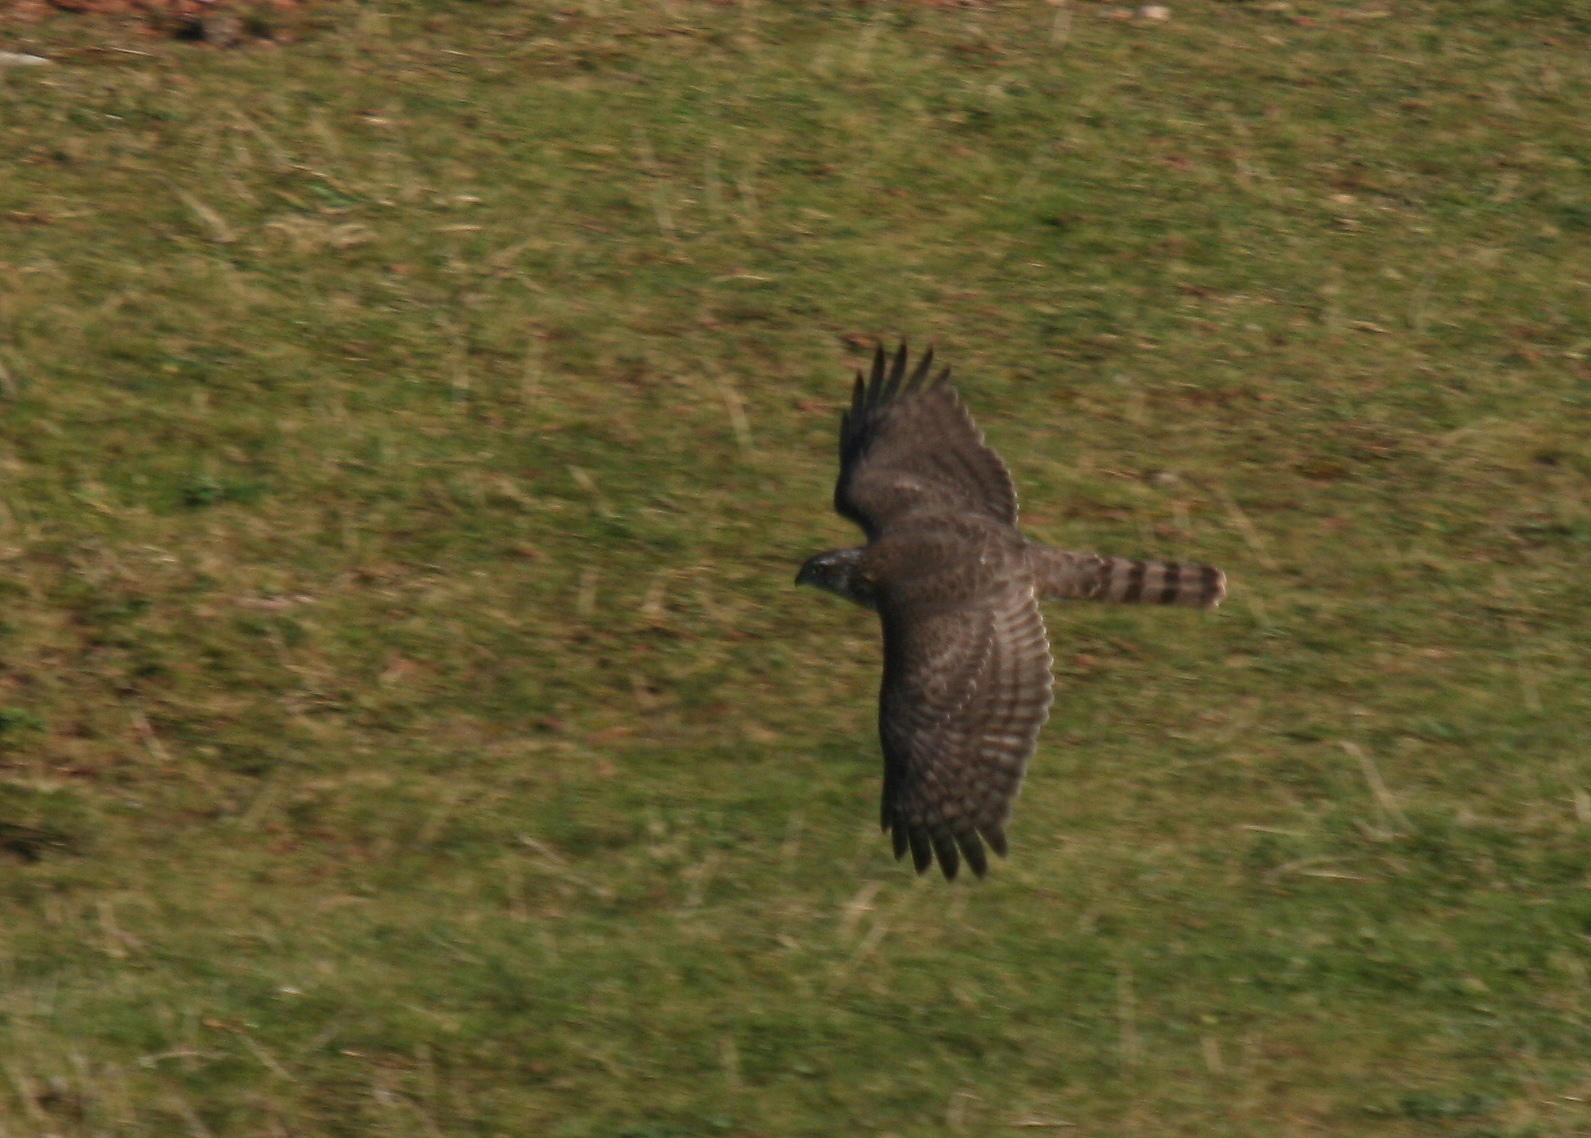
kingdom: Animalia
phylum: Chordata
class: Aves
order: Accipitriformes
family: Accipitridae
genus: Accipiter
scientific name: Accipiter nisus
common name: Eurasian sparrowhawk
